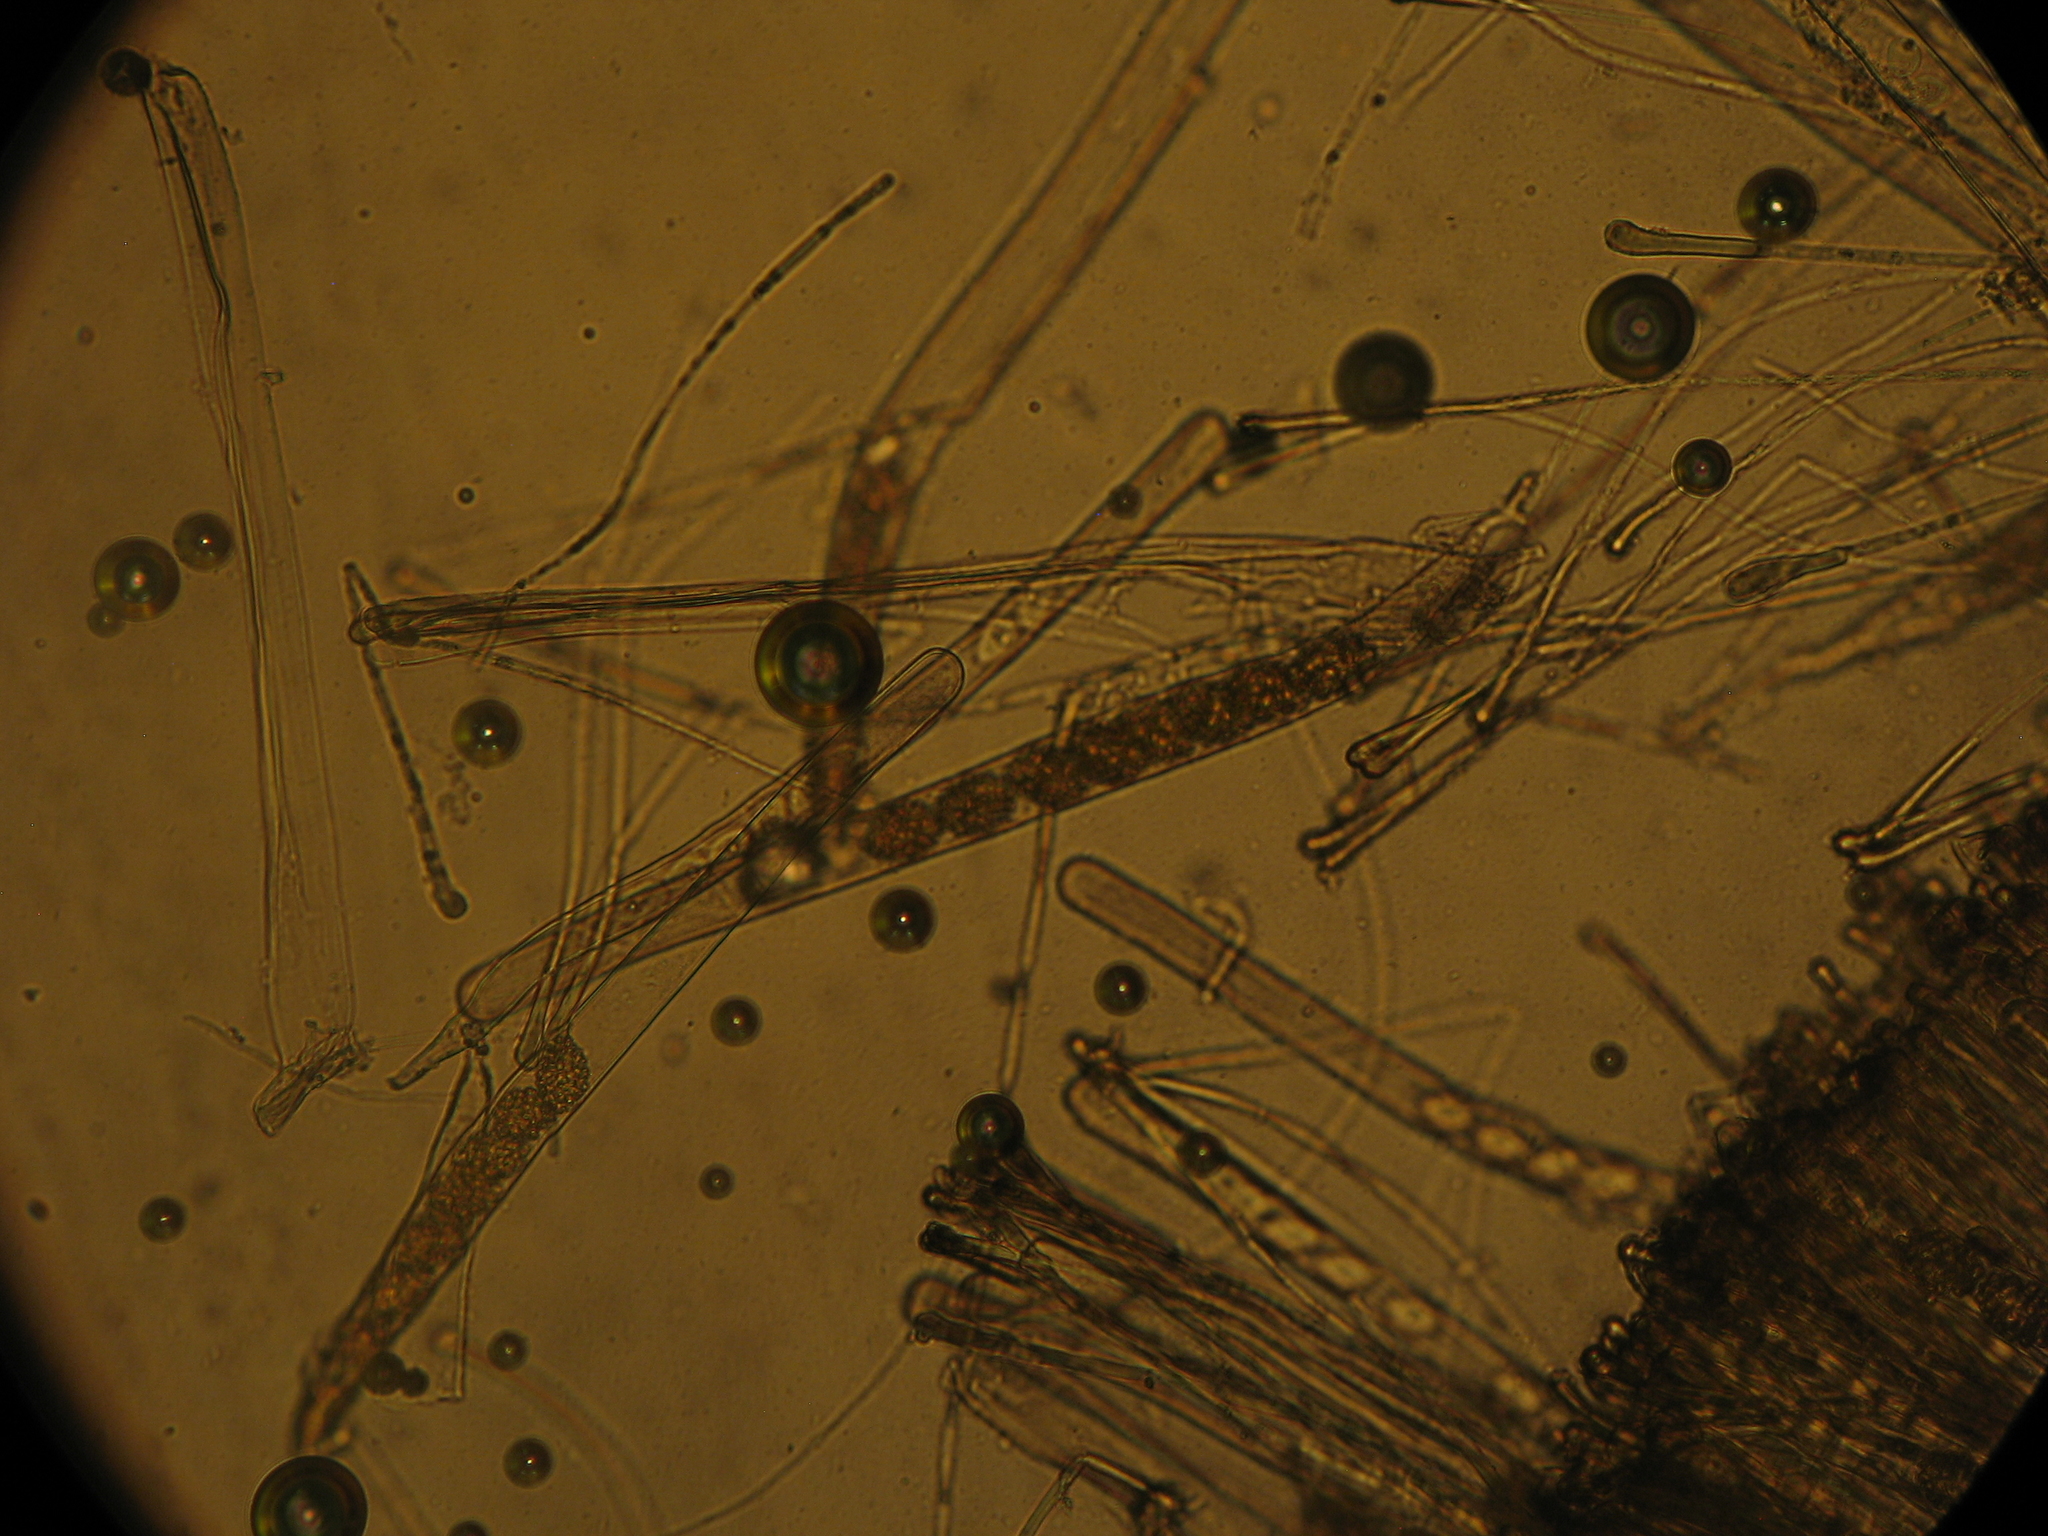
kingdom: Fungi
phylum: Ascomycota
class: Pezizomycetes
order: Pezizales
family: Pyronemataceae
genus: Aleurina
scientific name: Aleurina calospora
